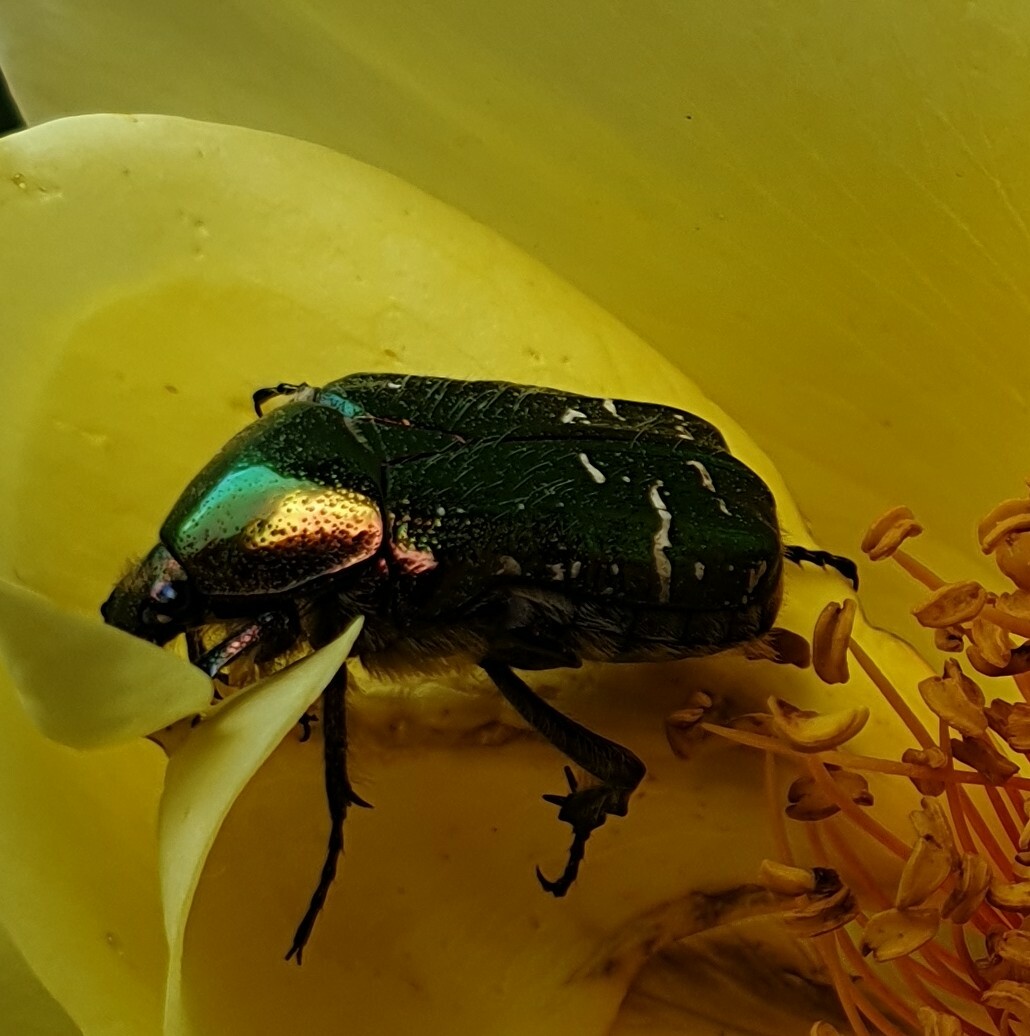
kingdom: Animalia
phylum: Arthropoda
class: Insecta
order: Coleoptera
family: Scarabaeidae
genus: Cetonia
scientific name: Cetonia aurata
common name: Rose chafer
